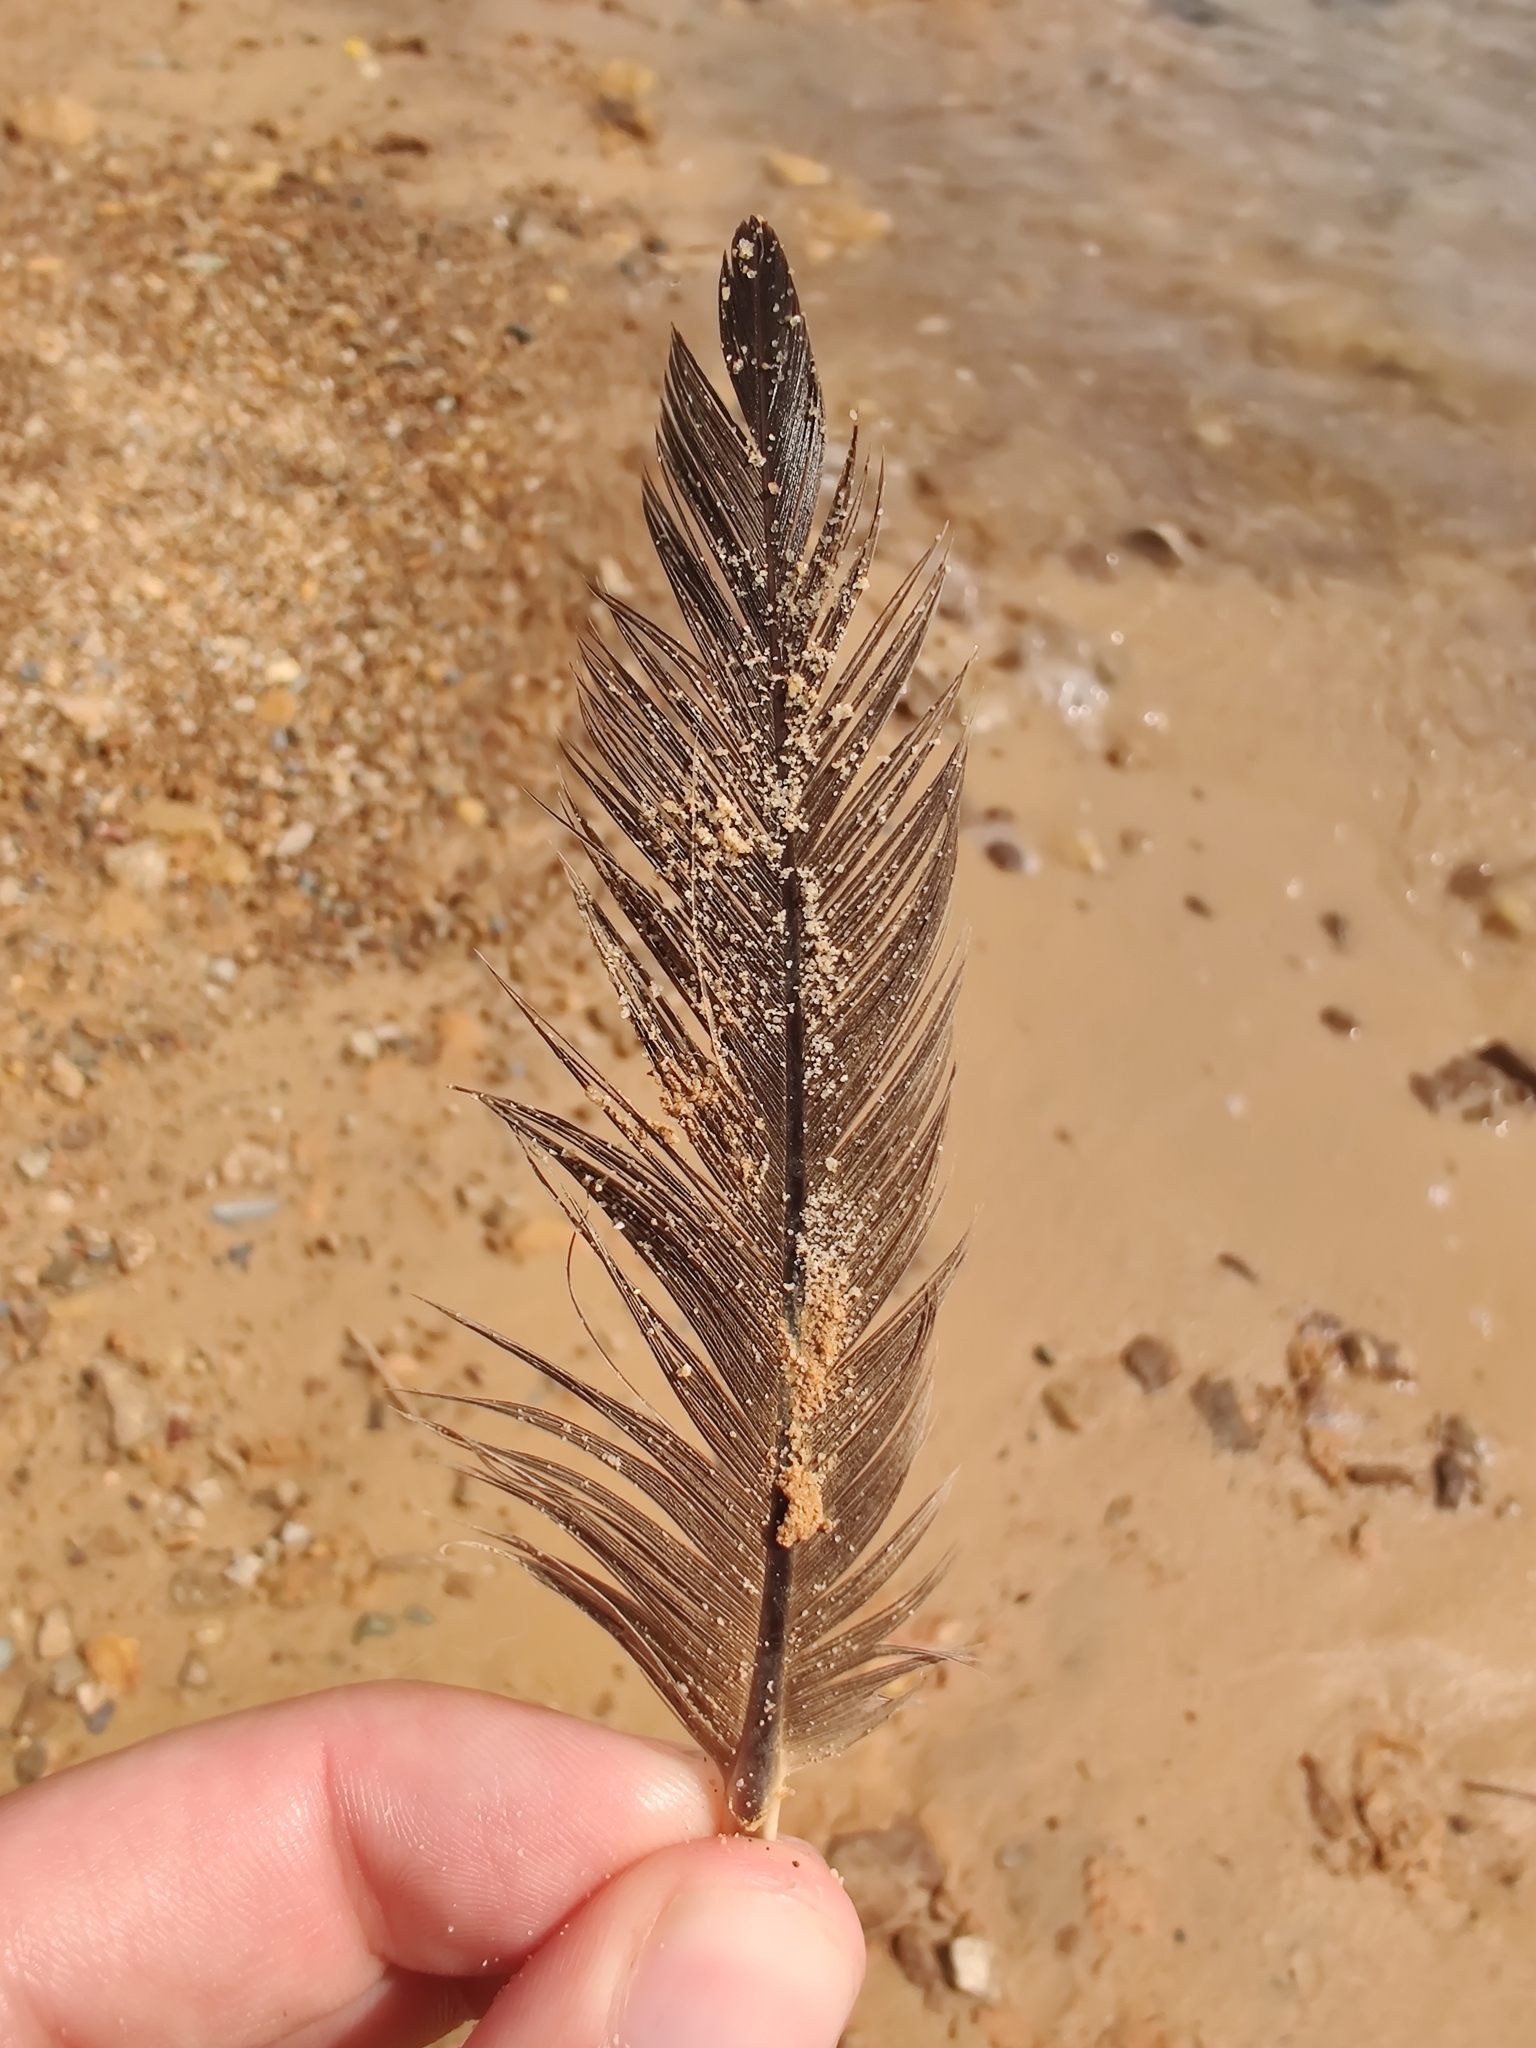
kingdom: Animalia
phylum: Chordata
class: Aves
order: Anseriformes
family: Anatidae
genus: Branta
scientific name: Branta canadensis
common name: Canada goose
